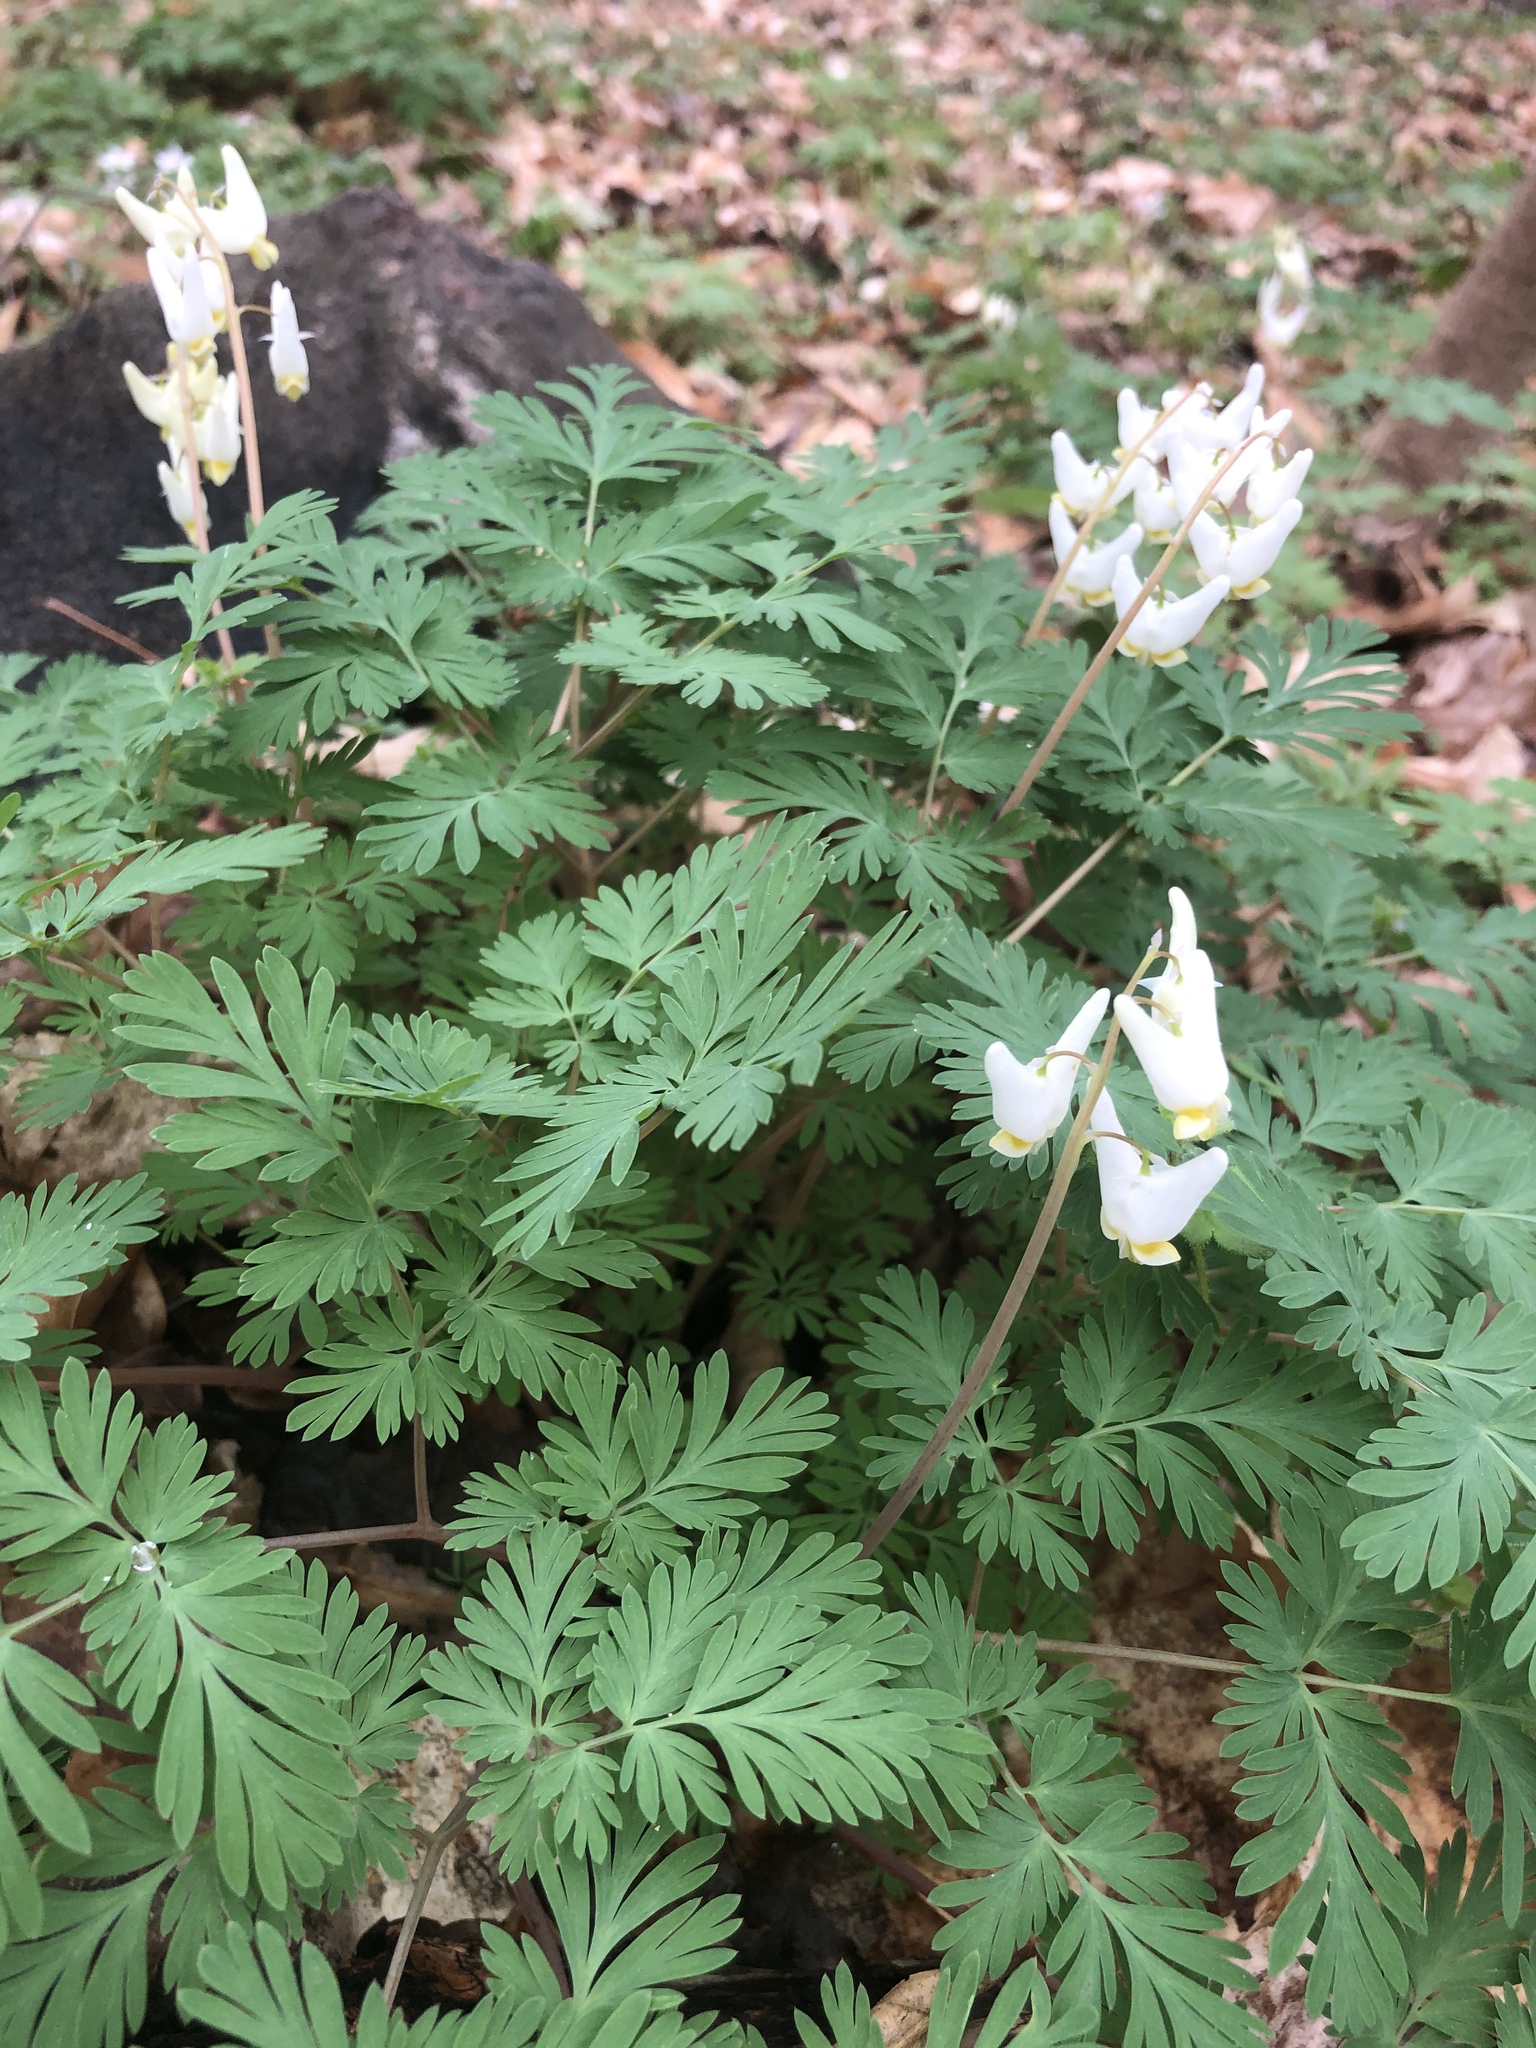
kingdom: Plantae
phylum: Tracheophyta
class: Magnoliopsida
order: Ranunculales
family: Papaveraceae
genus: Dicentra
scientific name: Dicentra cucullaria
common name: Dutchman's breeches
